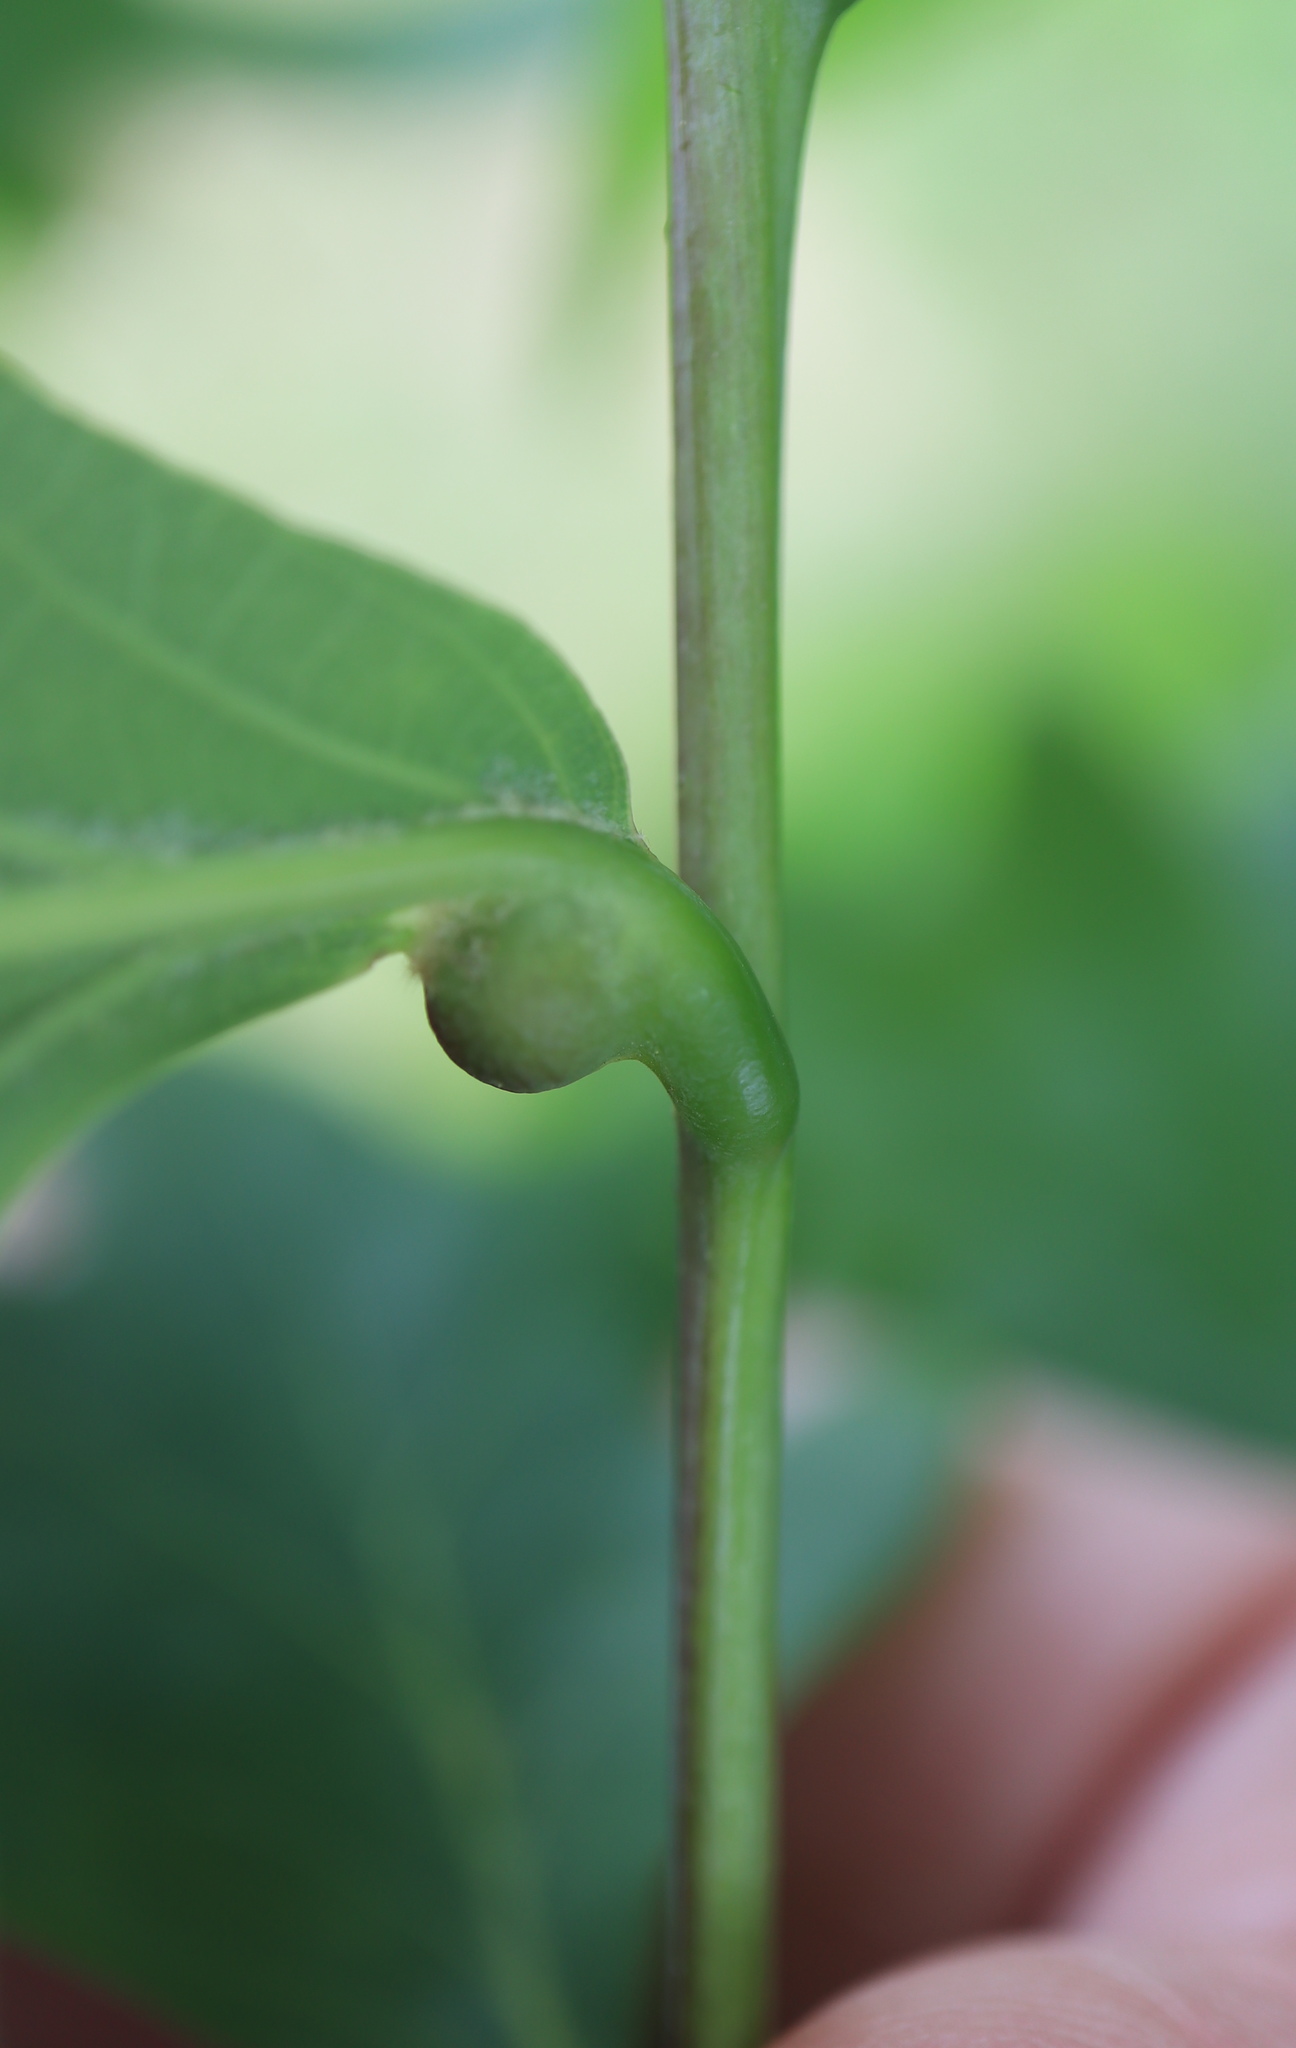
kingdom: Animalia
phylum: Arthropoda
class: Insecta
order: Hymenoptera
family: Cynipidae
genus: Andricus
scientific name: Andricus
